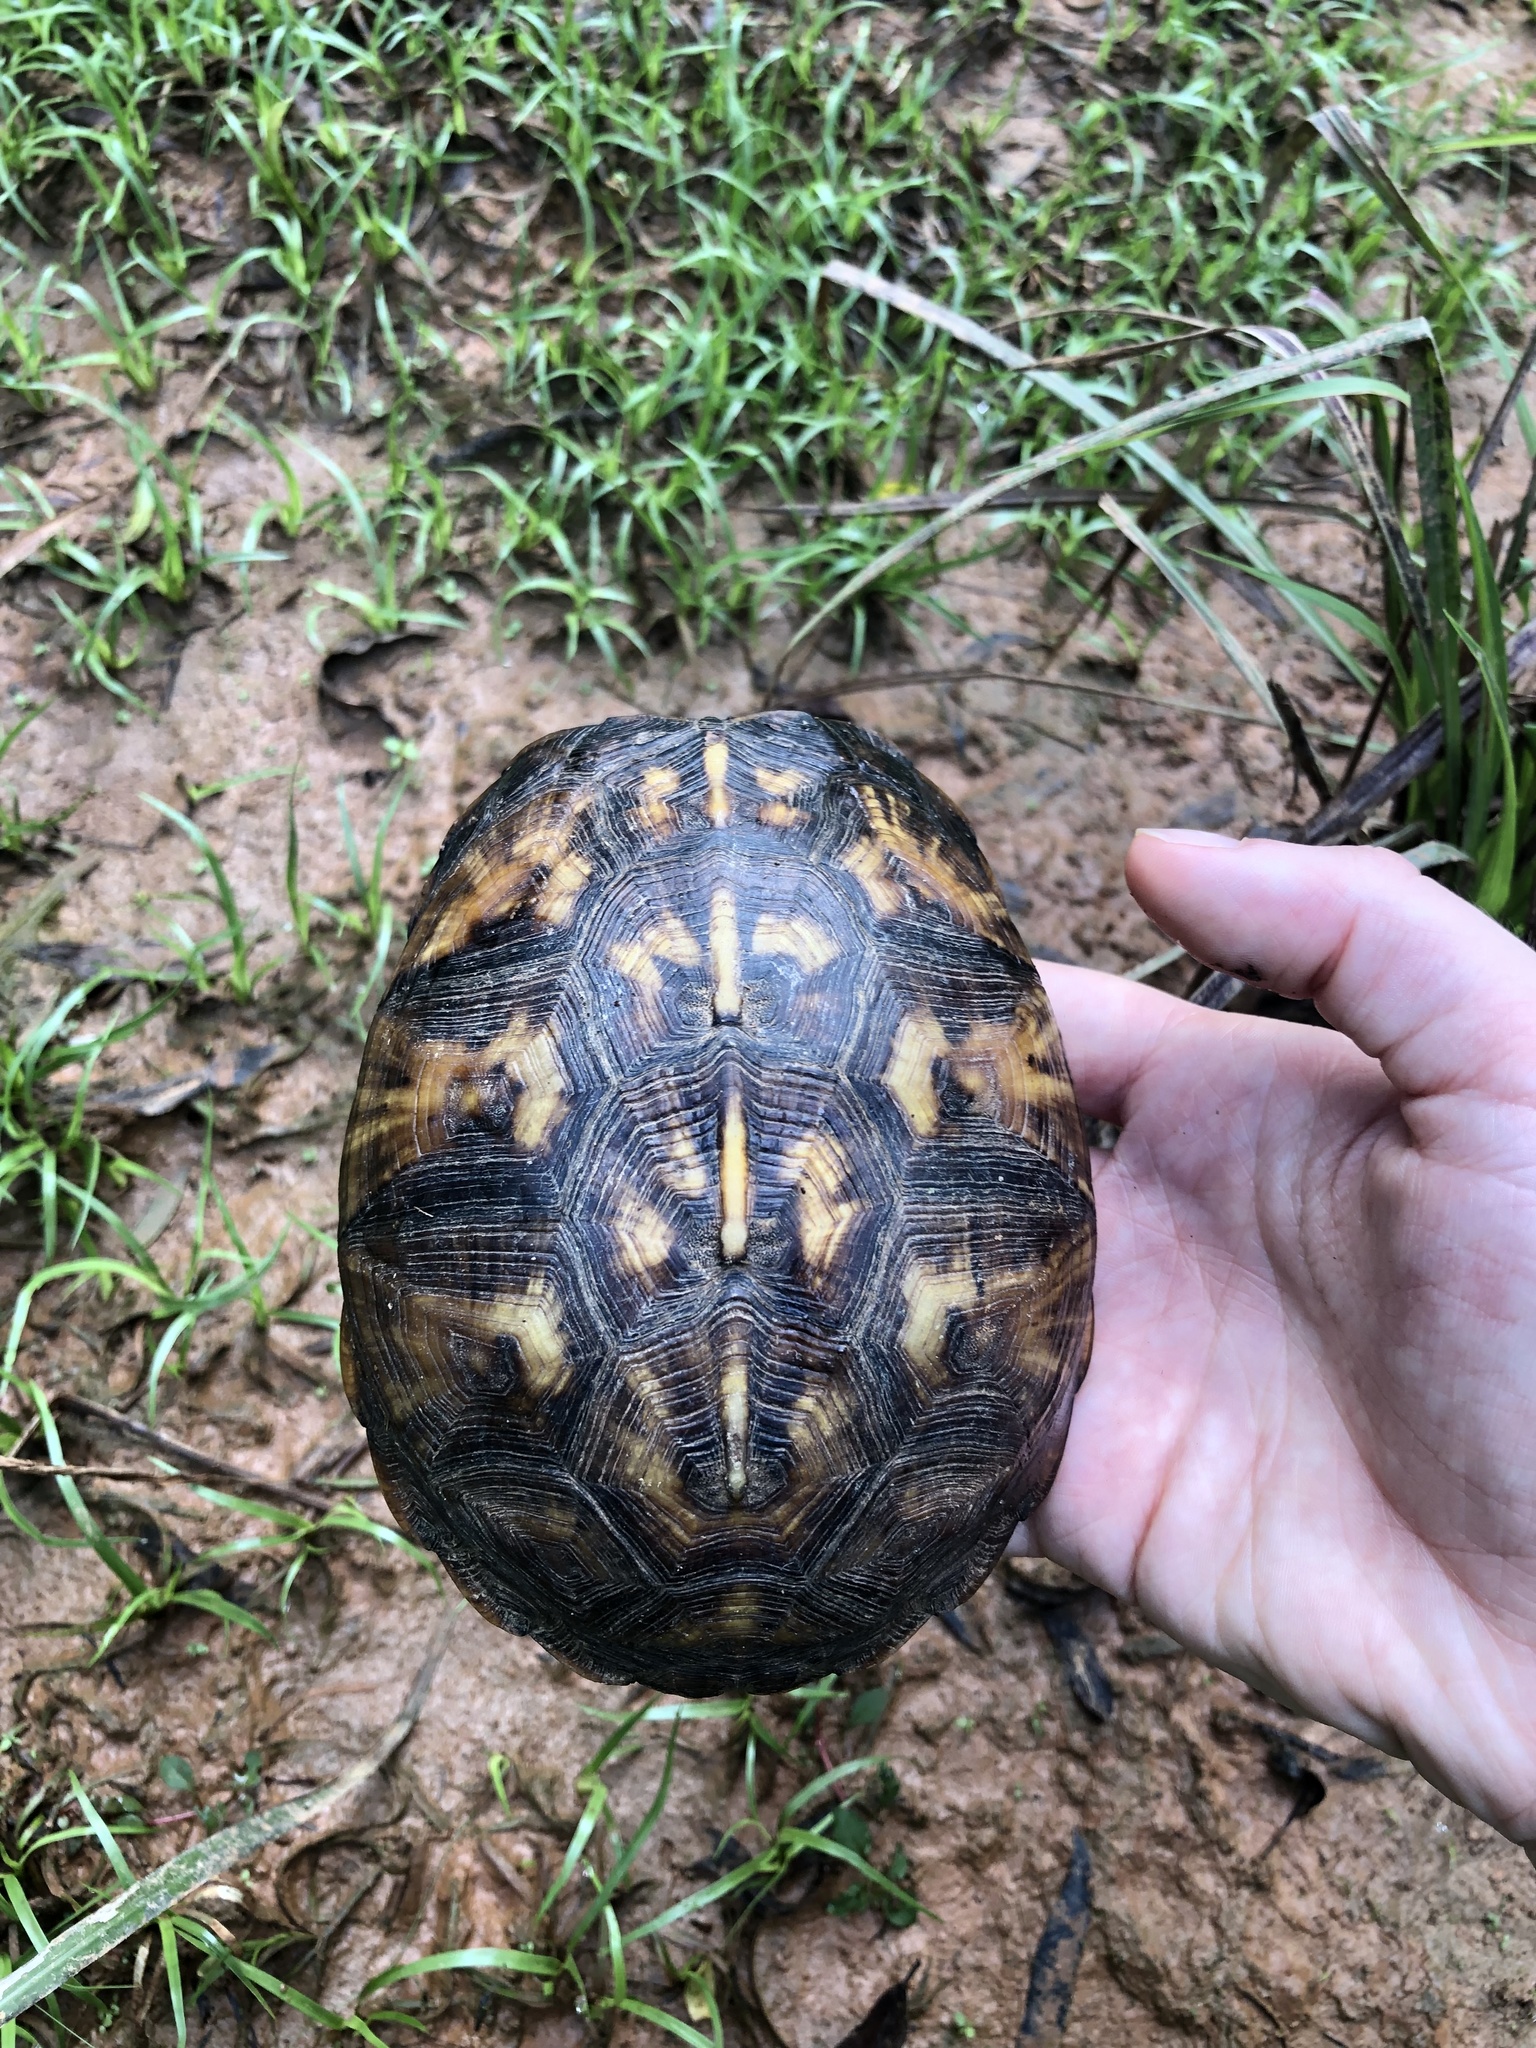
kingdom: Animalia
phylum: Chordata
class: Testudines
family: Emydidae
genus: Terrapene
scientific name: Terrapene carolina
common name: Common box turtle
